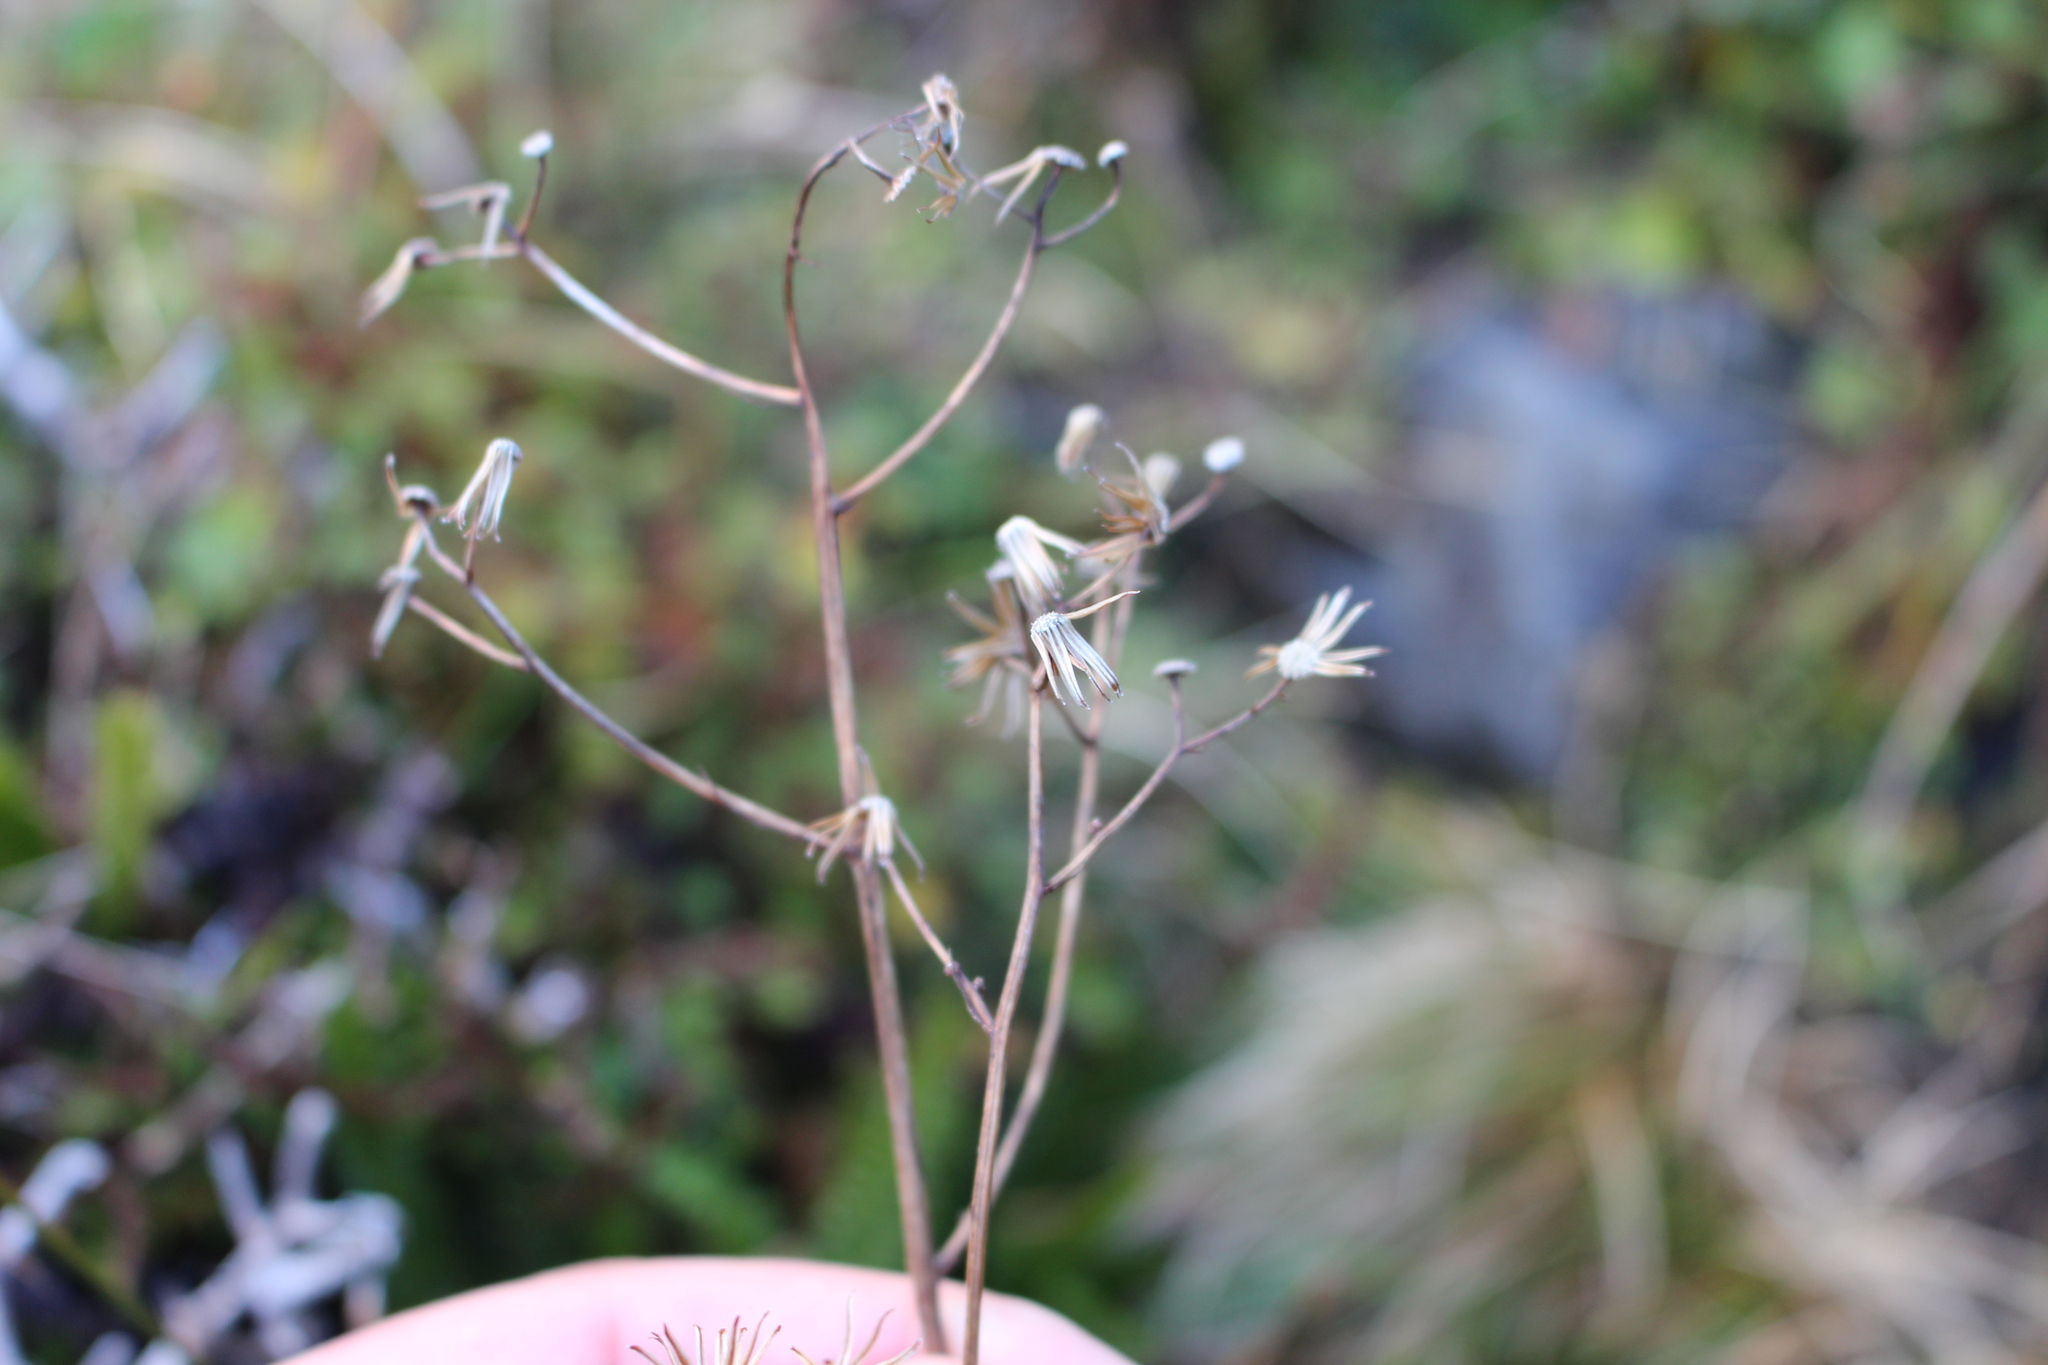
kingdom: Plantae
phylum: Tracheophyta
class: Magnoliopsida
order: Asterales
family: Asteraceae
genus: Senecio
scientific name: Senecio wairauensis
